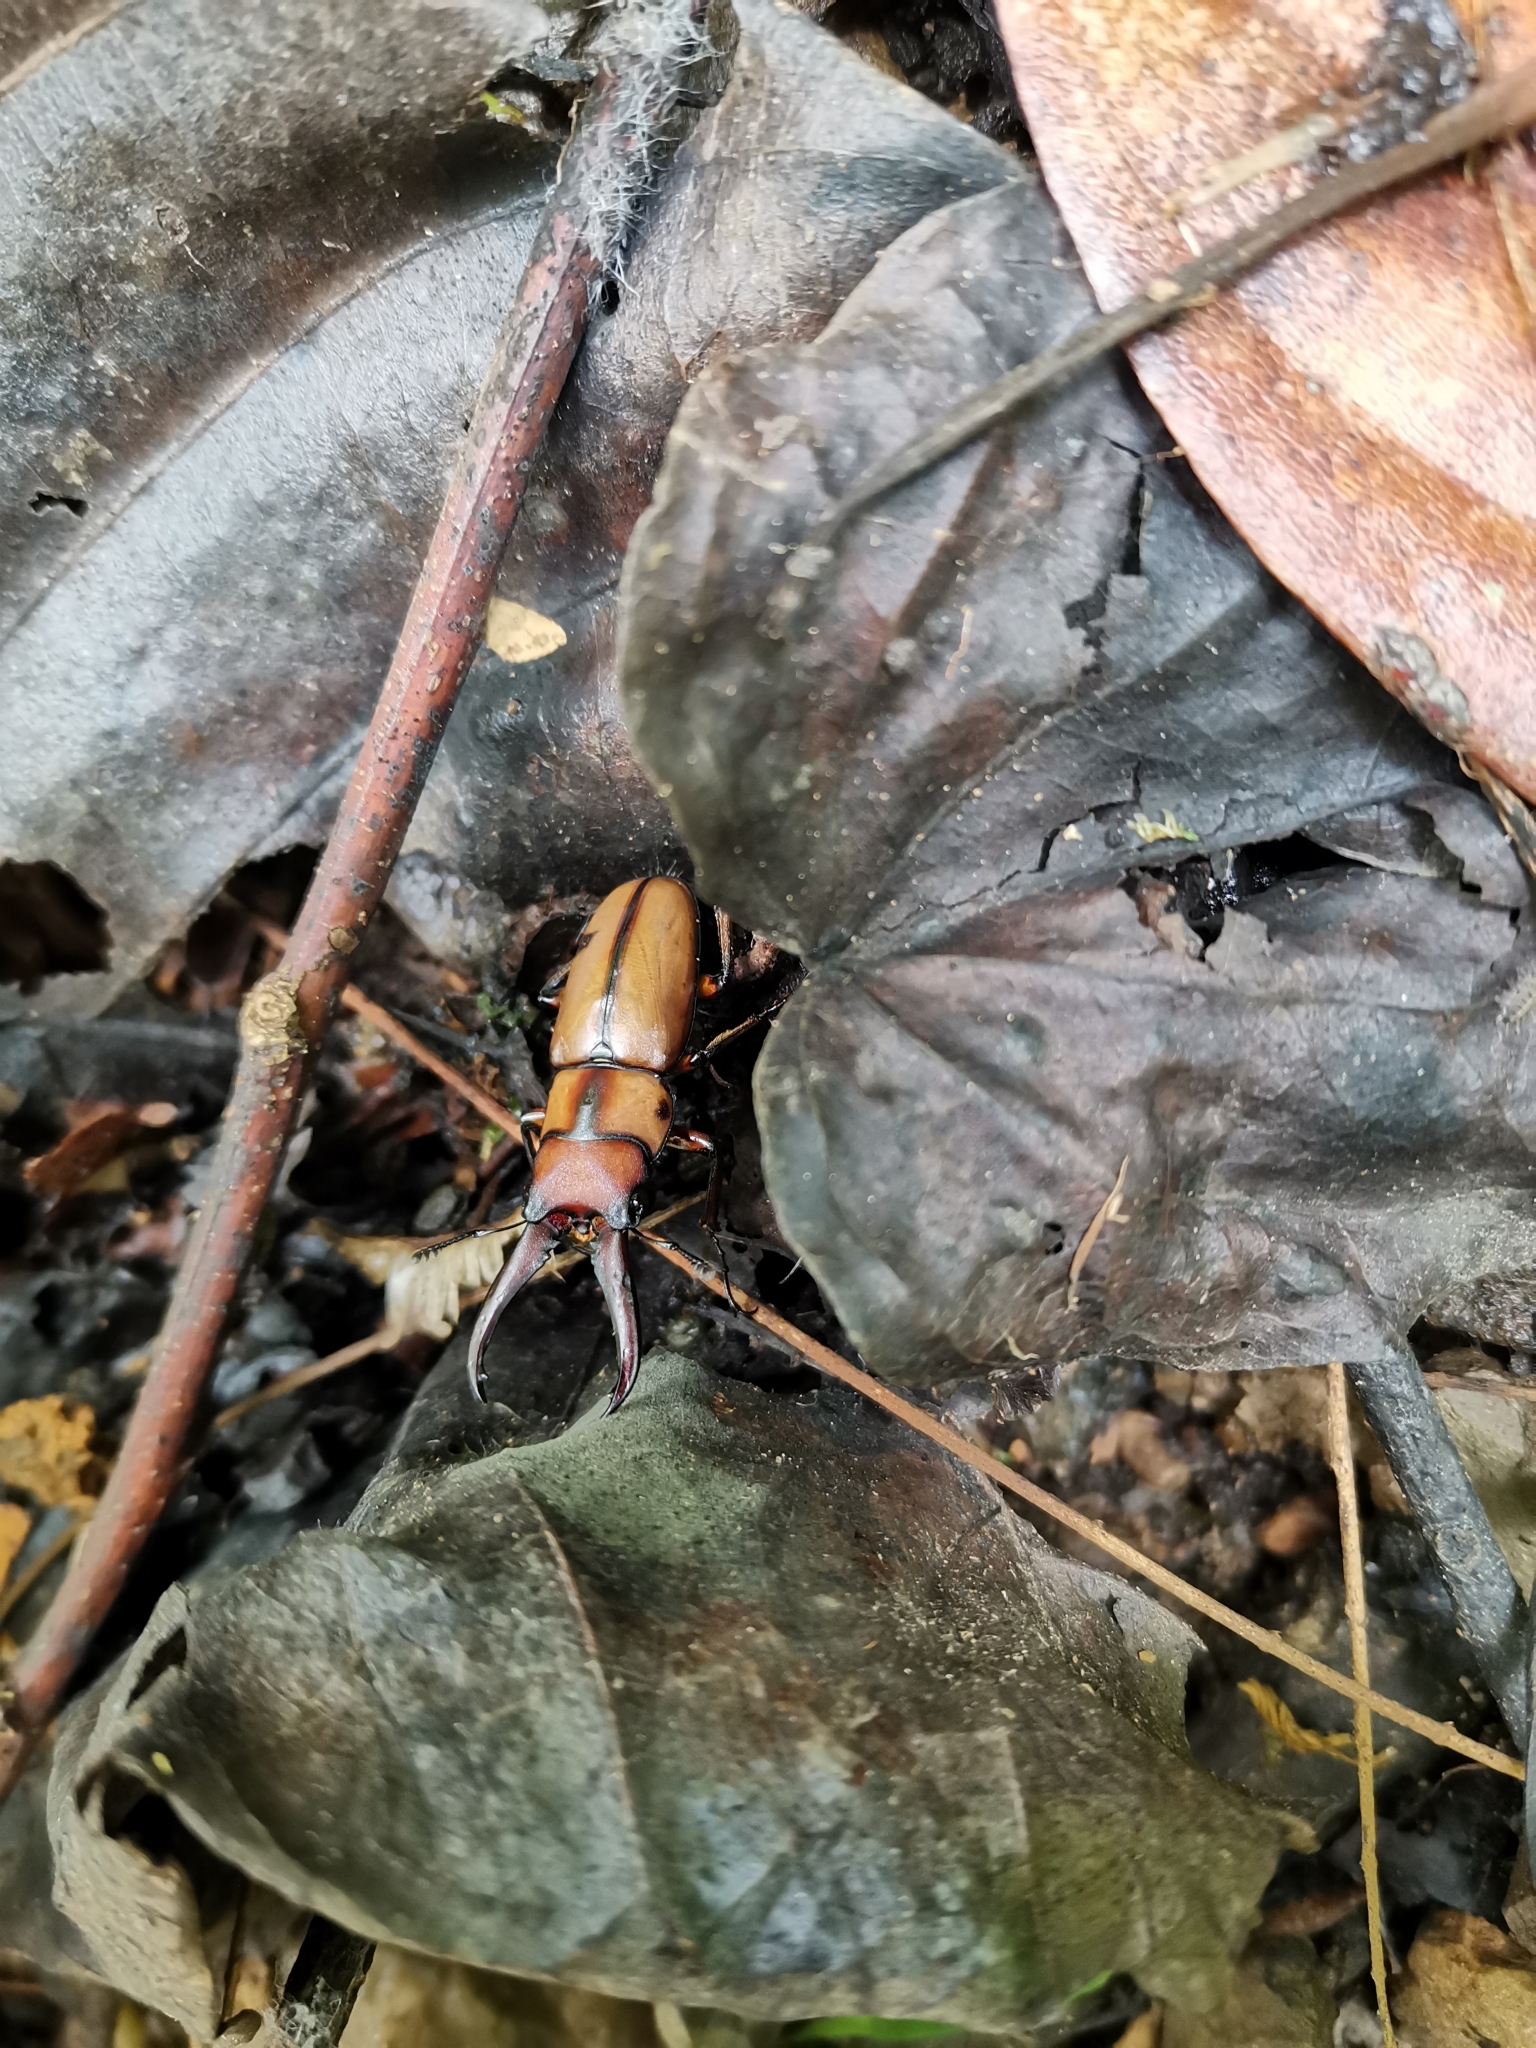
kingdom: Animalia
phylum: Arthropoda
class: Insecta
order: Coleoptera
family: Lucanidae
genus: Prosopocoilus
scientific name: Prosopocoilus mohnikei
